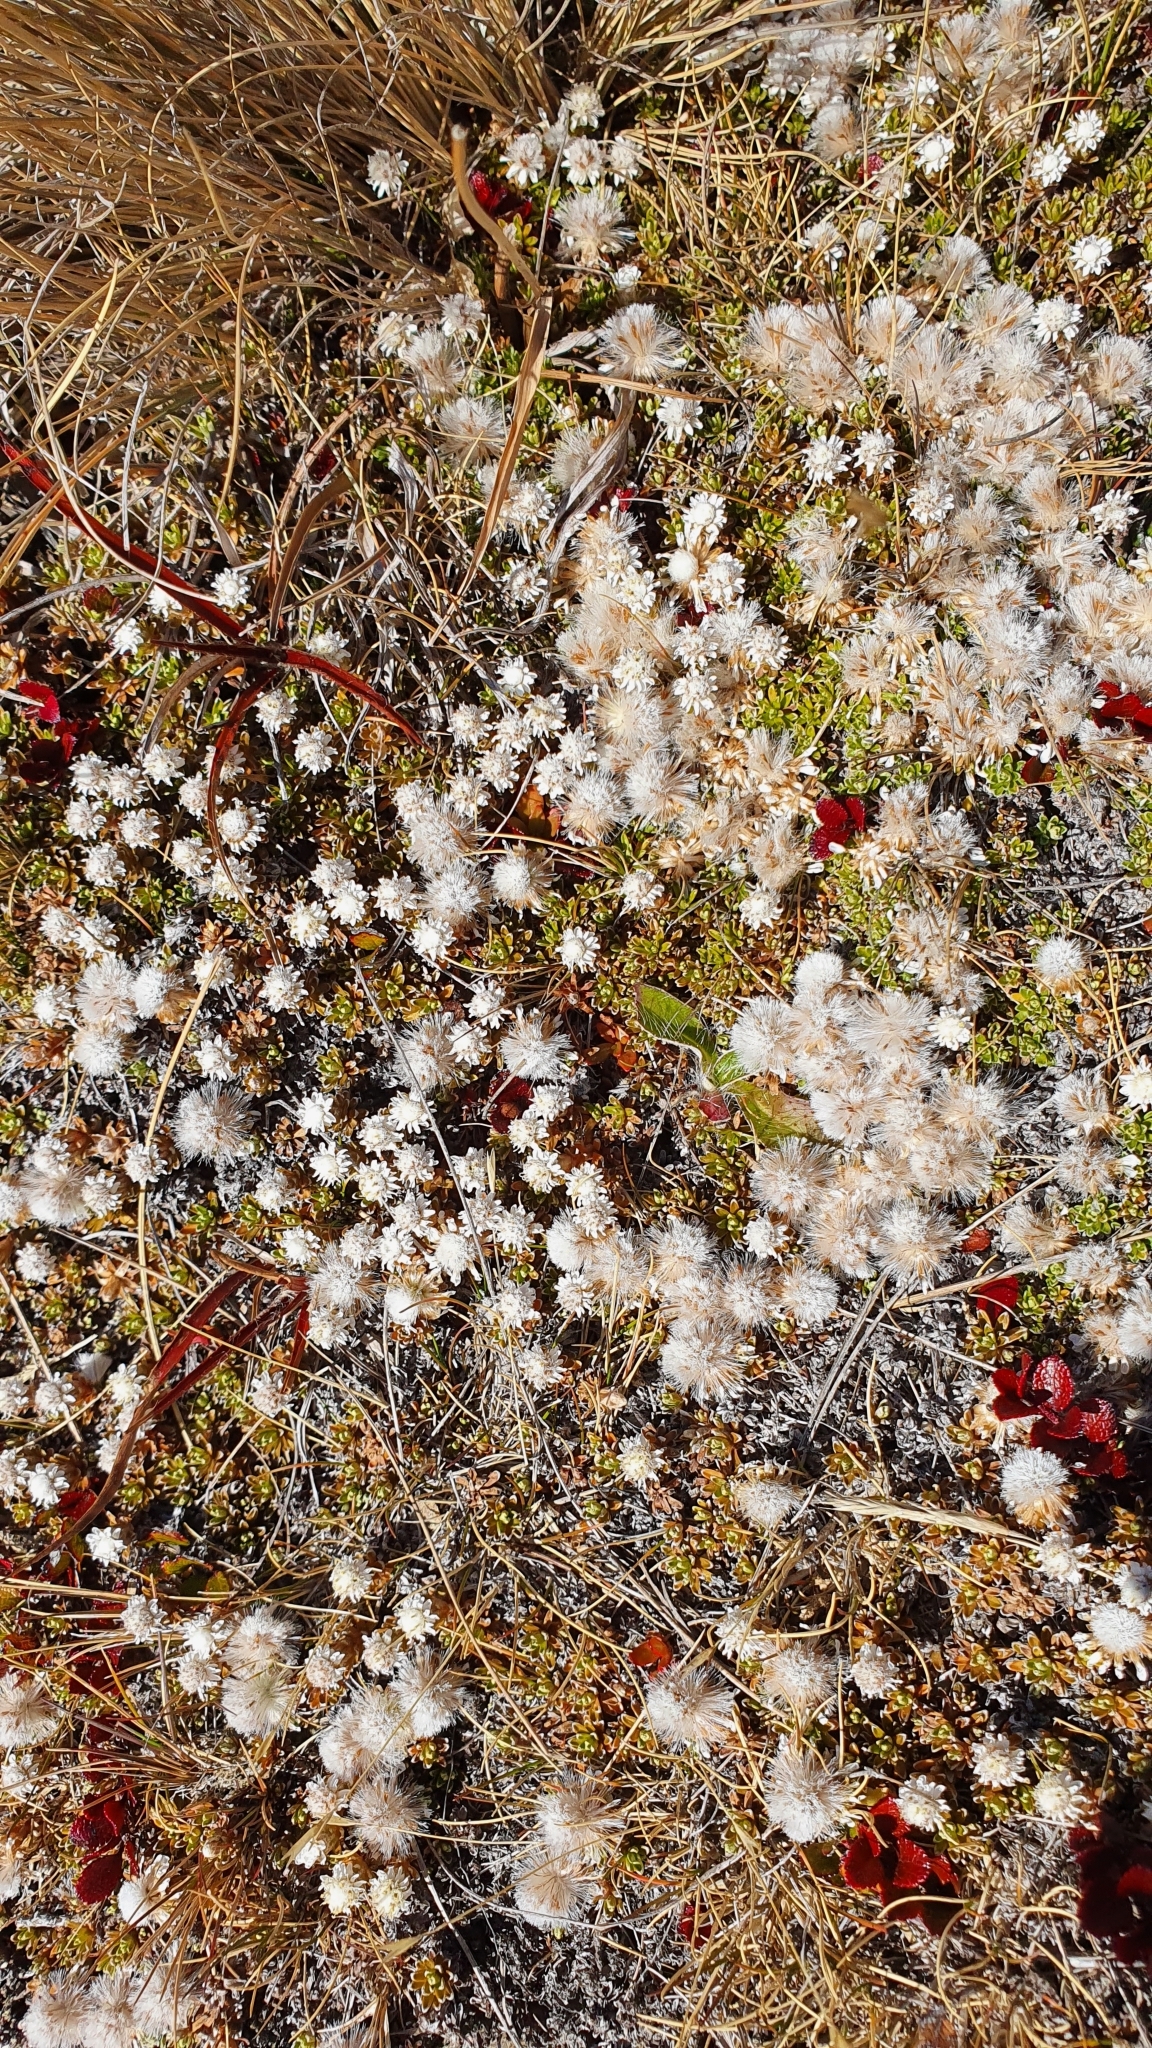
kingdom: Plantae
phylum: Tracheophyta
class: Magnoliopsida
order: Asterales
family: Asteraceae
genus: Raoulia
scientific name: Raoulia subsericea
